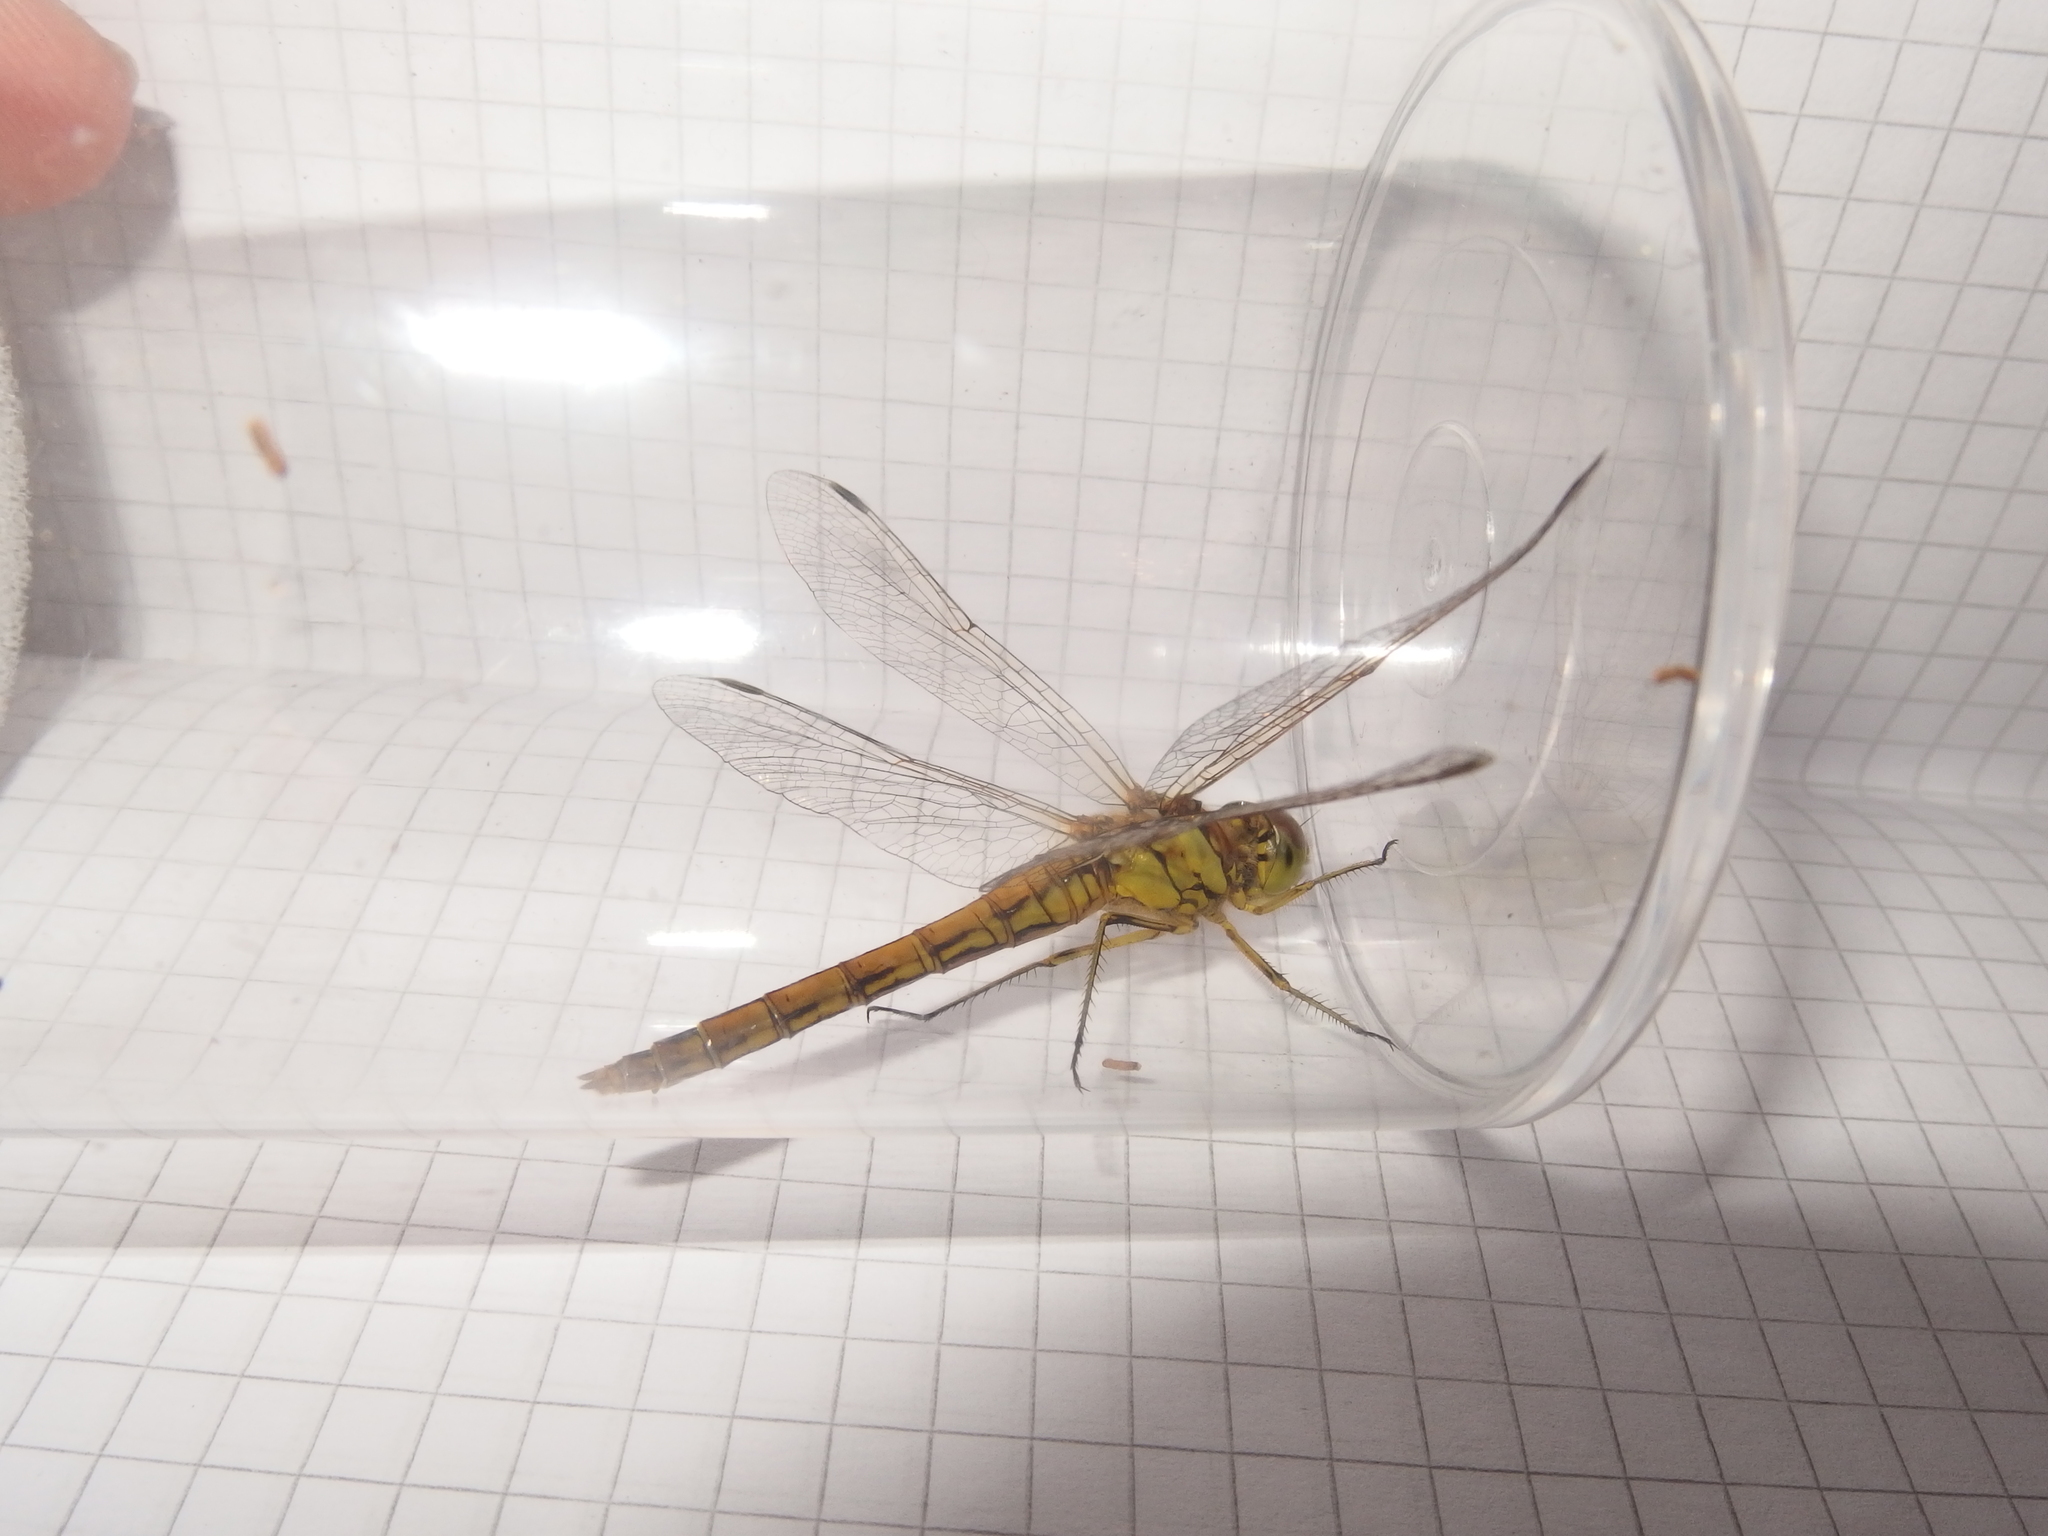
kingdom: Animalia
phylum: Arthropoda
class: Insecta
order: Odonata
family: Libellulidae
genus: Sympetrum
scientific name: Sympetrum vulgatum
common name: Vagrant darter
